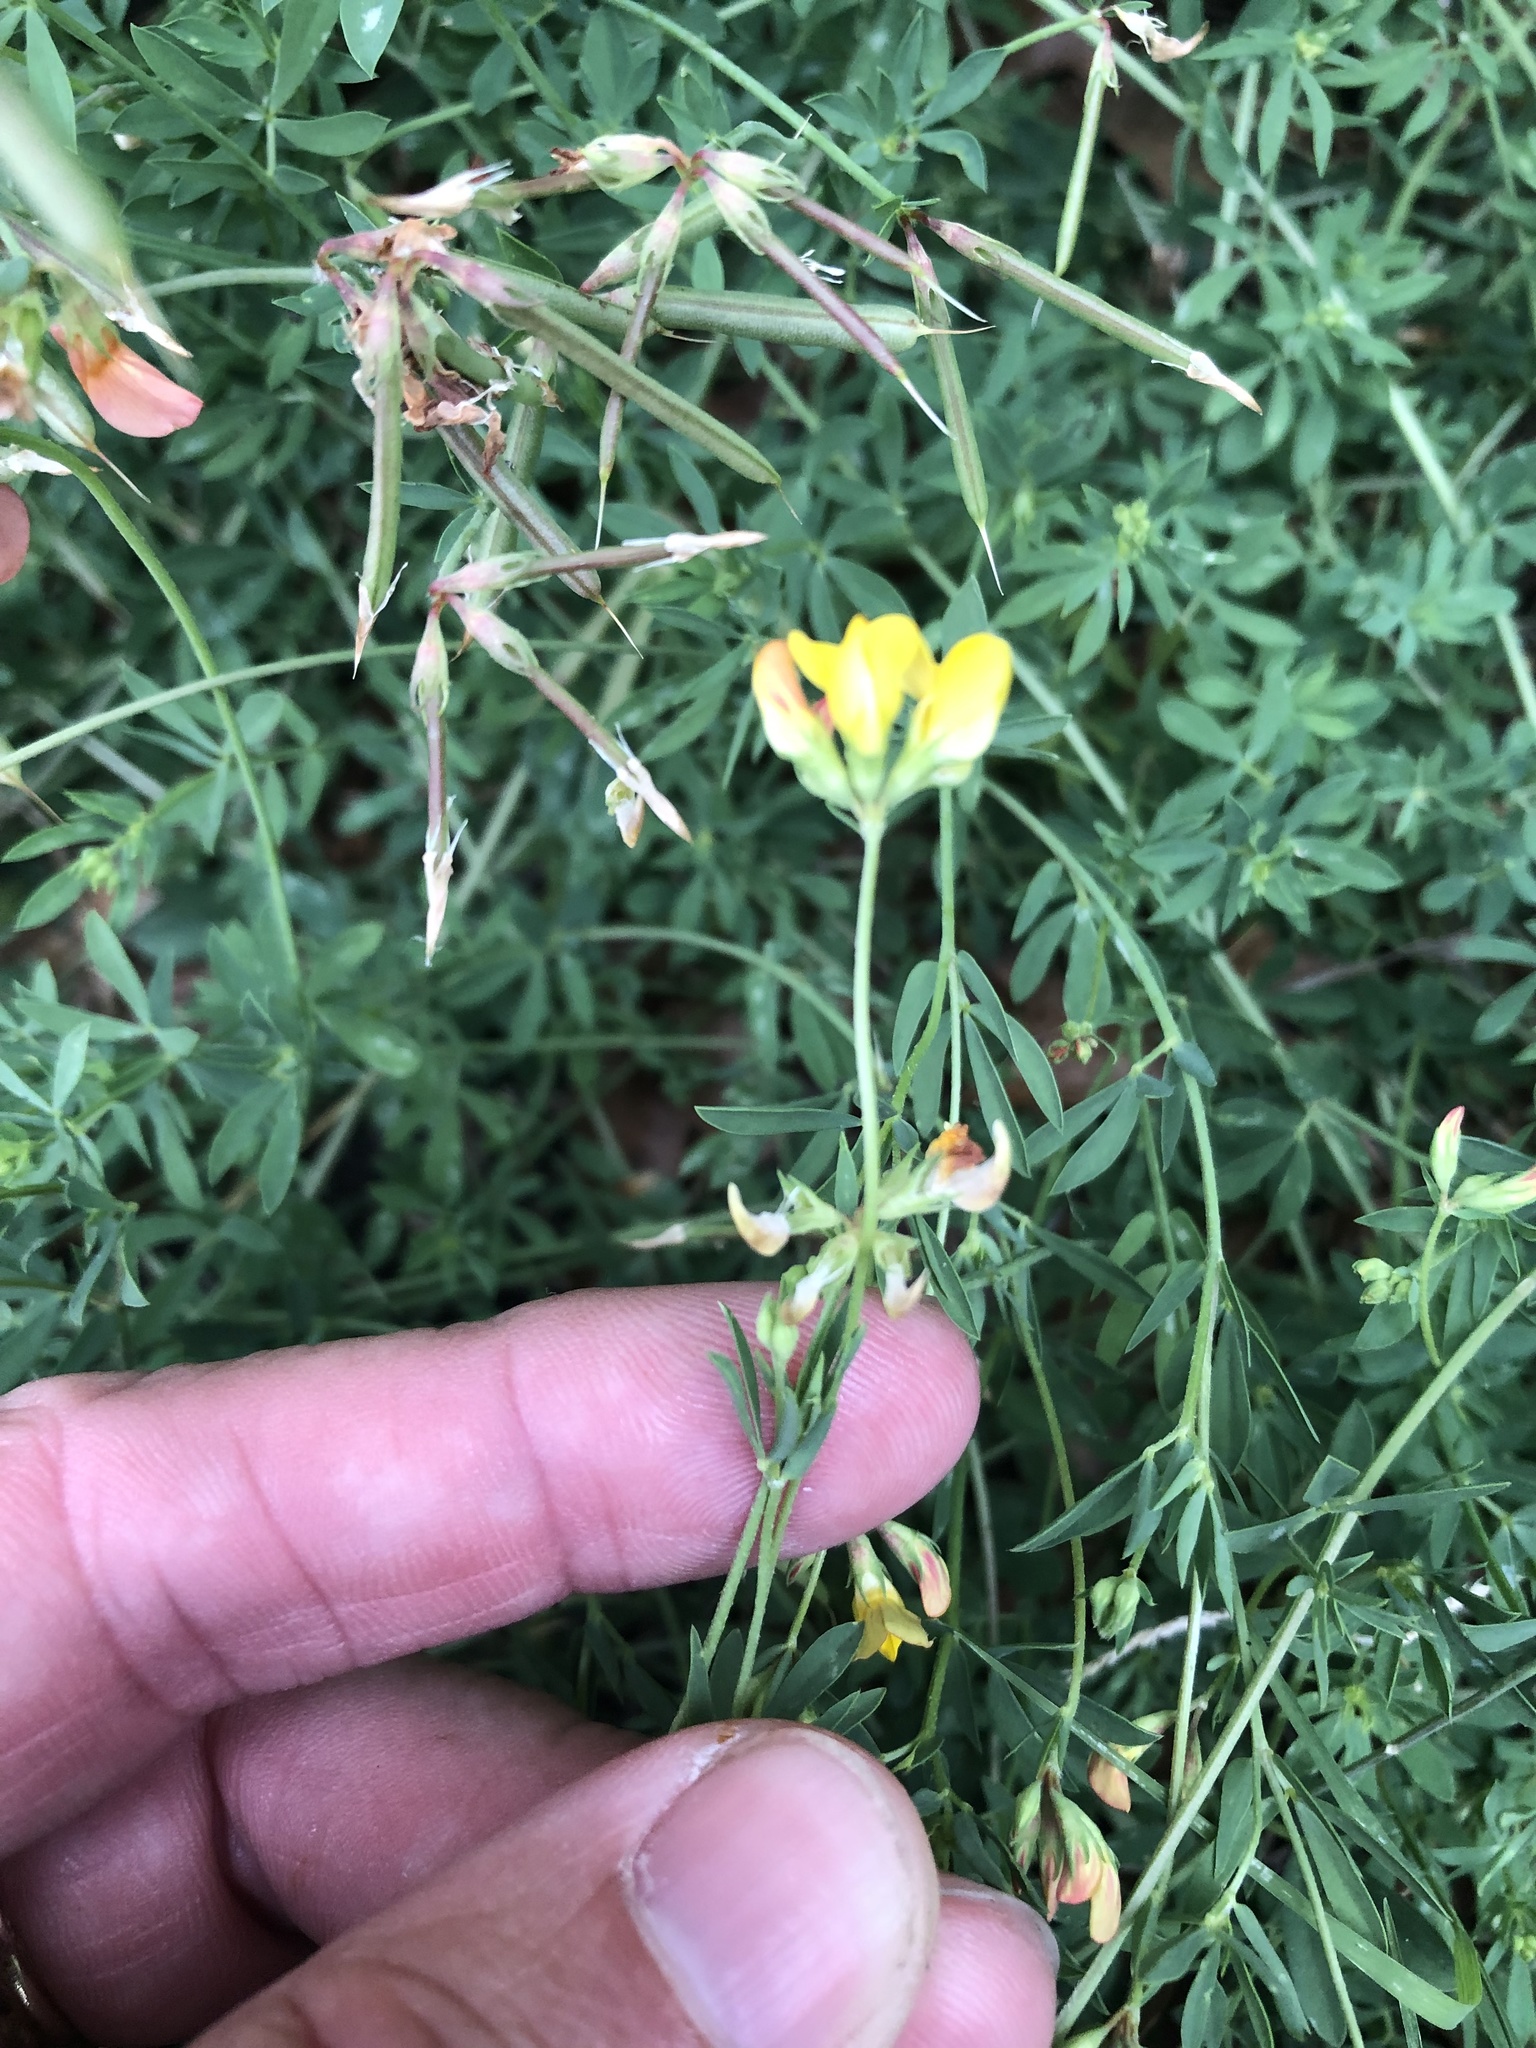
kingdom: Plantae
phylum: Tracheophyta
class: Magnoliopsida
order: Fabales
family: Fabaceae
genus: Lotus
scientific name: Lotus corniculatus
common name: Common bird's-foot-trefoil
